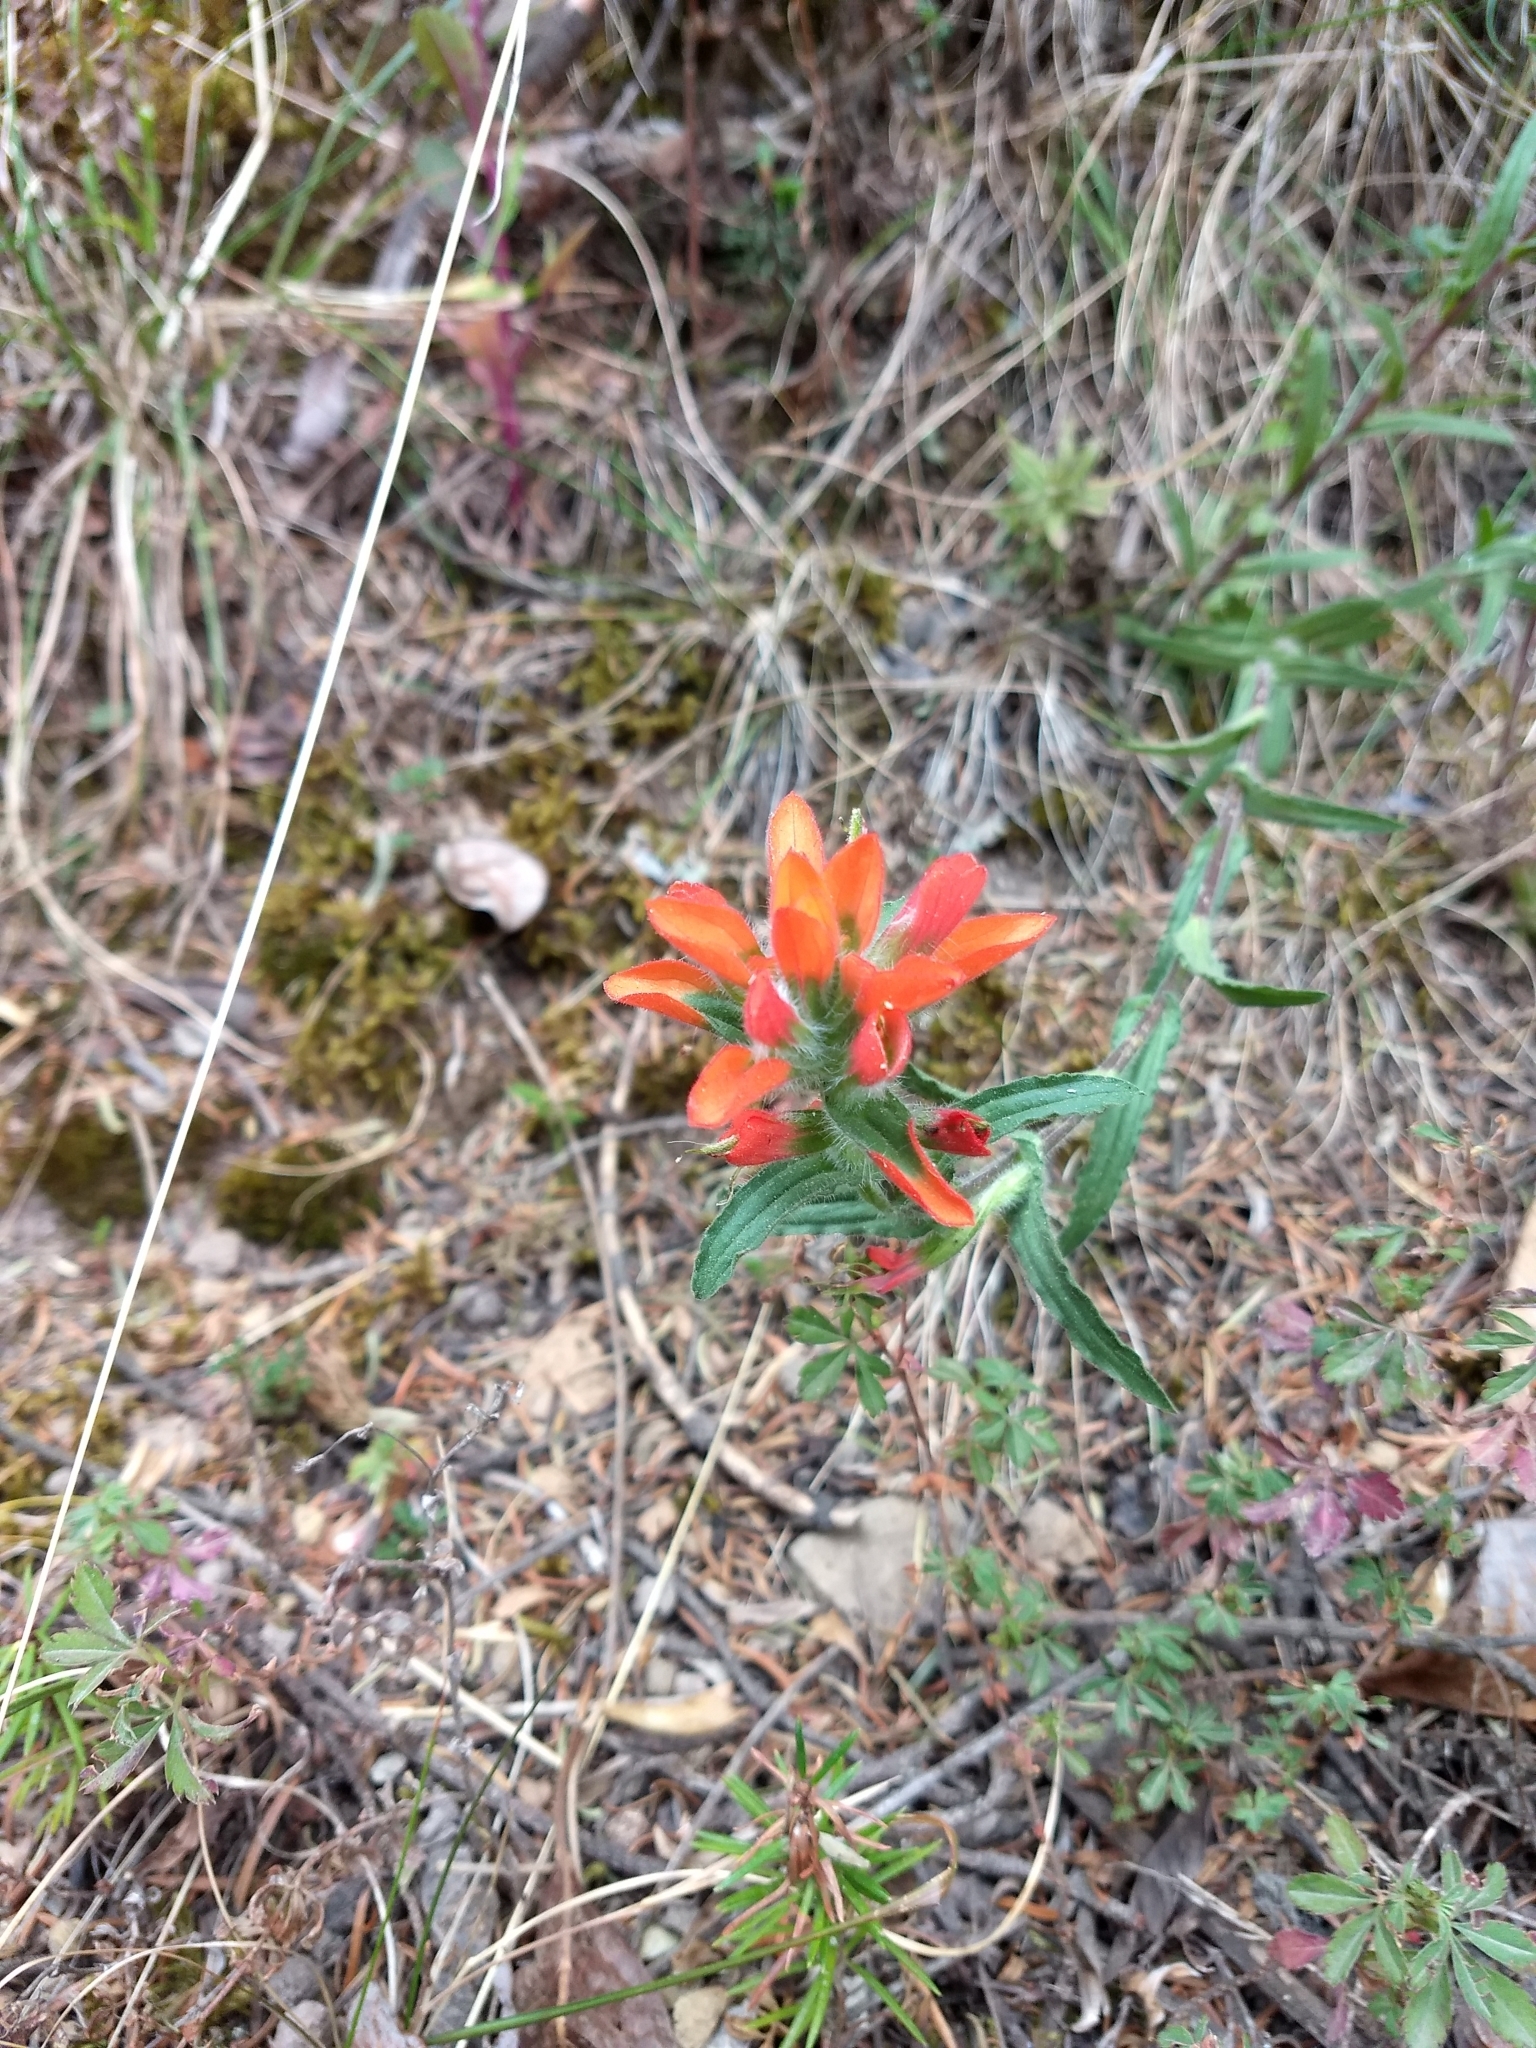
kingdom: Plantae
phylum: Tracheophyta
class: Magnoliopsida
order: Lamiales
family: Orobanchaceae
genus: Castilleja
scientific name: Castilleja tenuiflora
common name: Santa catalina indian paintbrush
